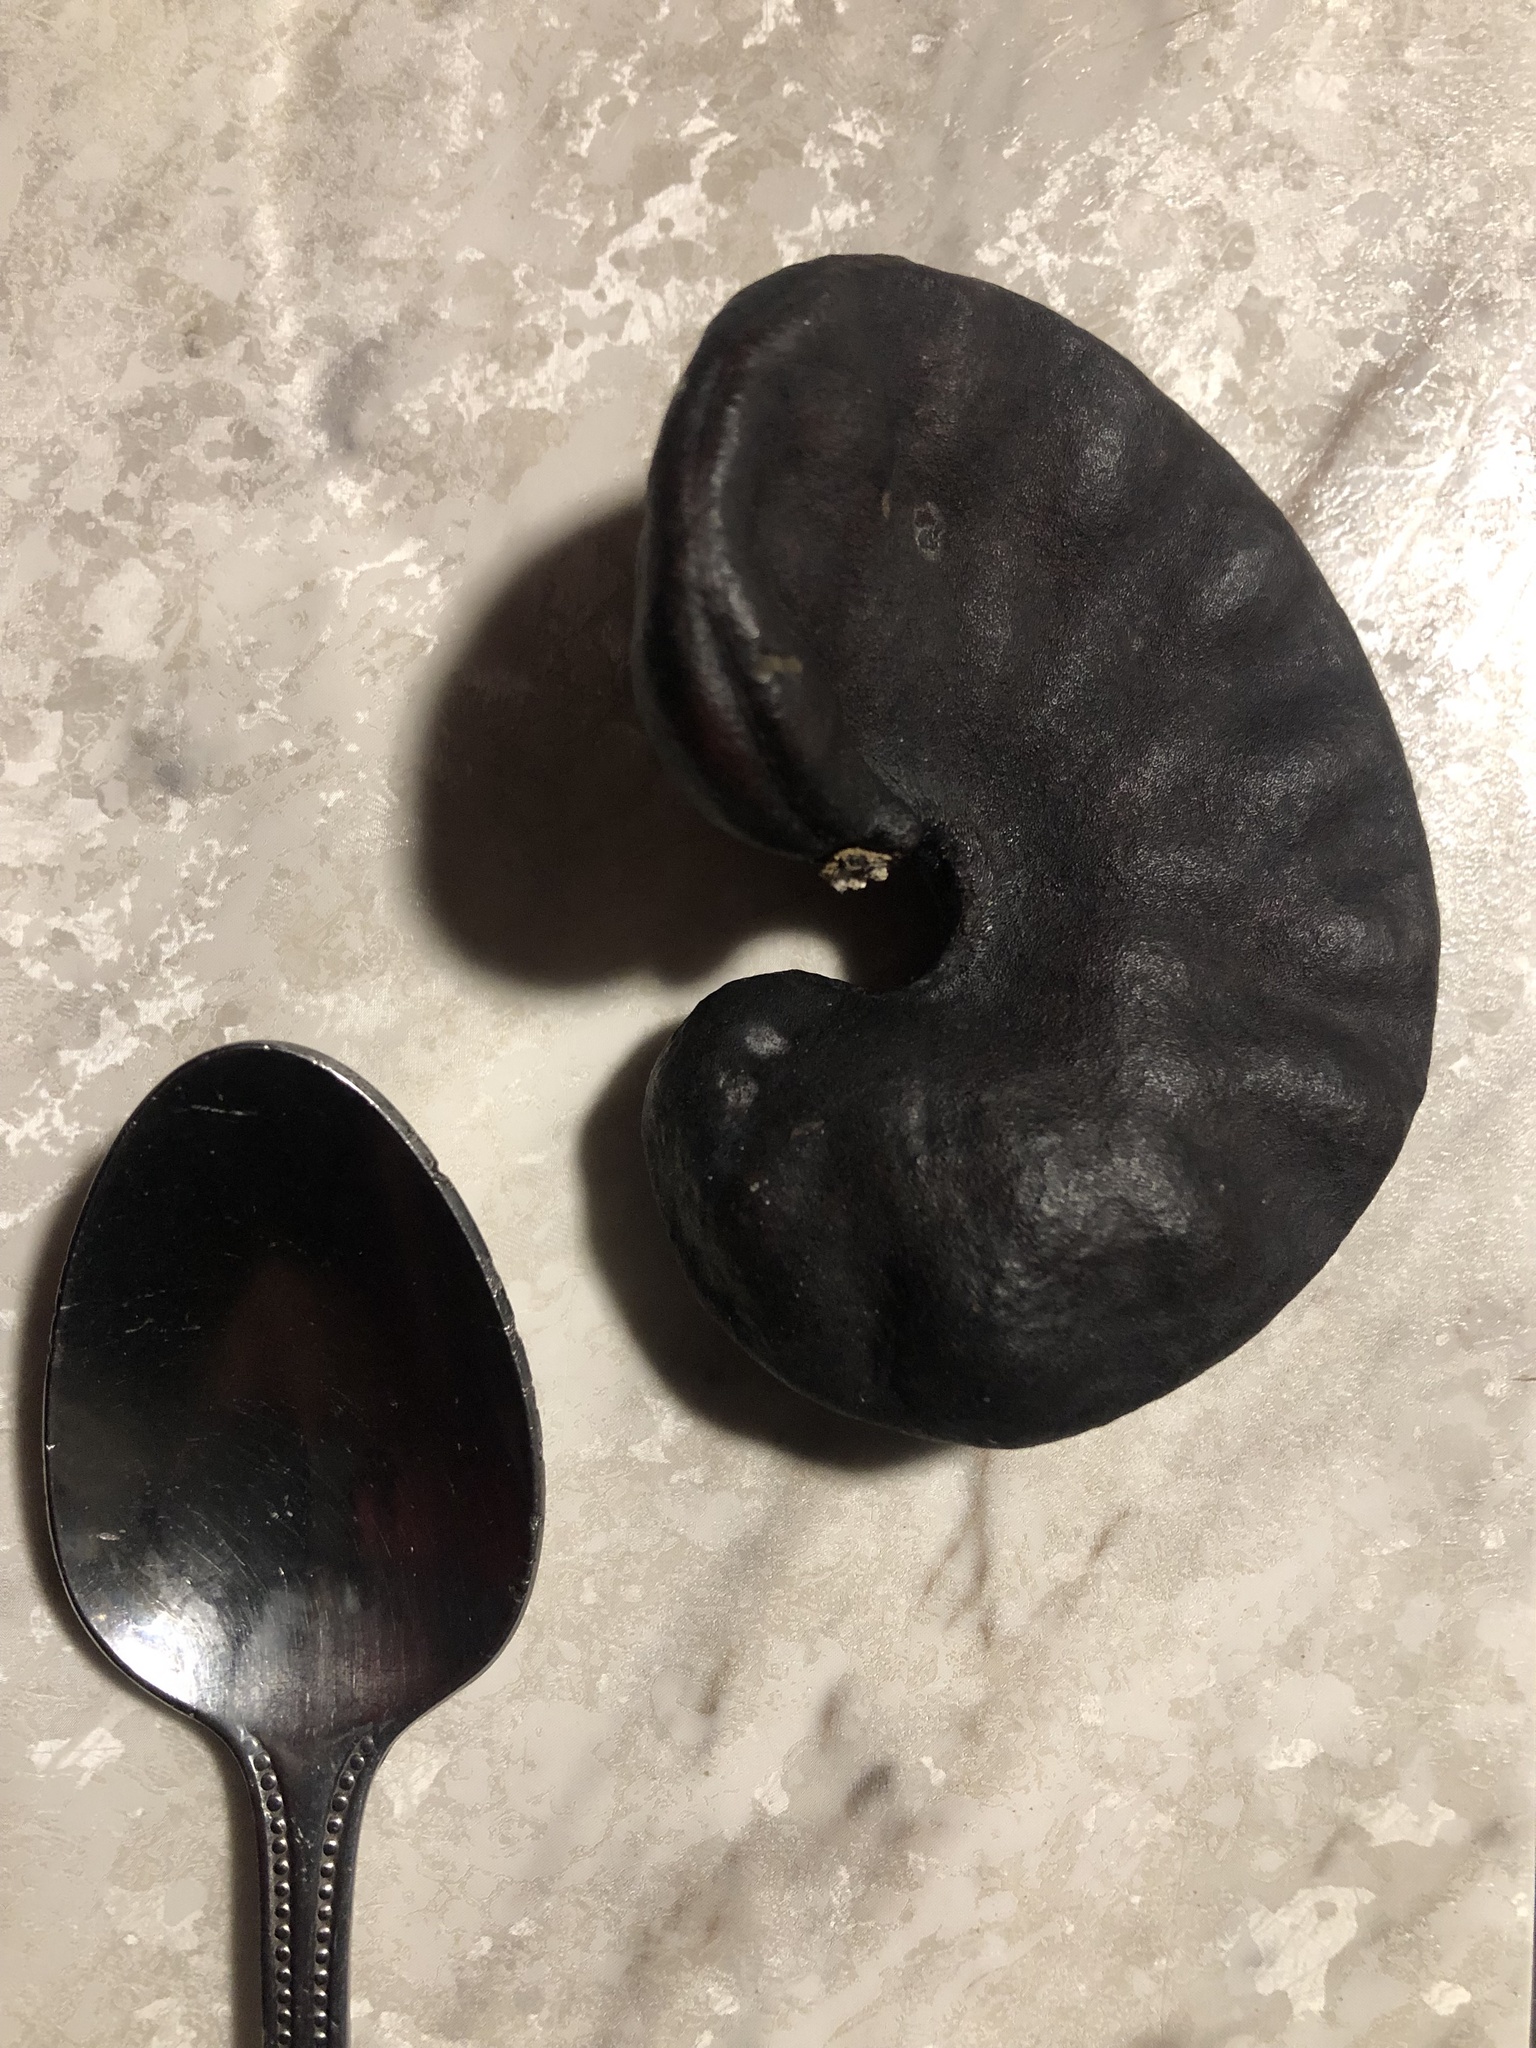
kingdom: Plantae
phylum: Tracheophyta
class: Magnoliopsida
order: Fabales
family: Fabaceae
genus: Enterolobium
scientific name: Enterolobium contortisiliquum
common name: Pacara earpod tree
